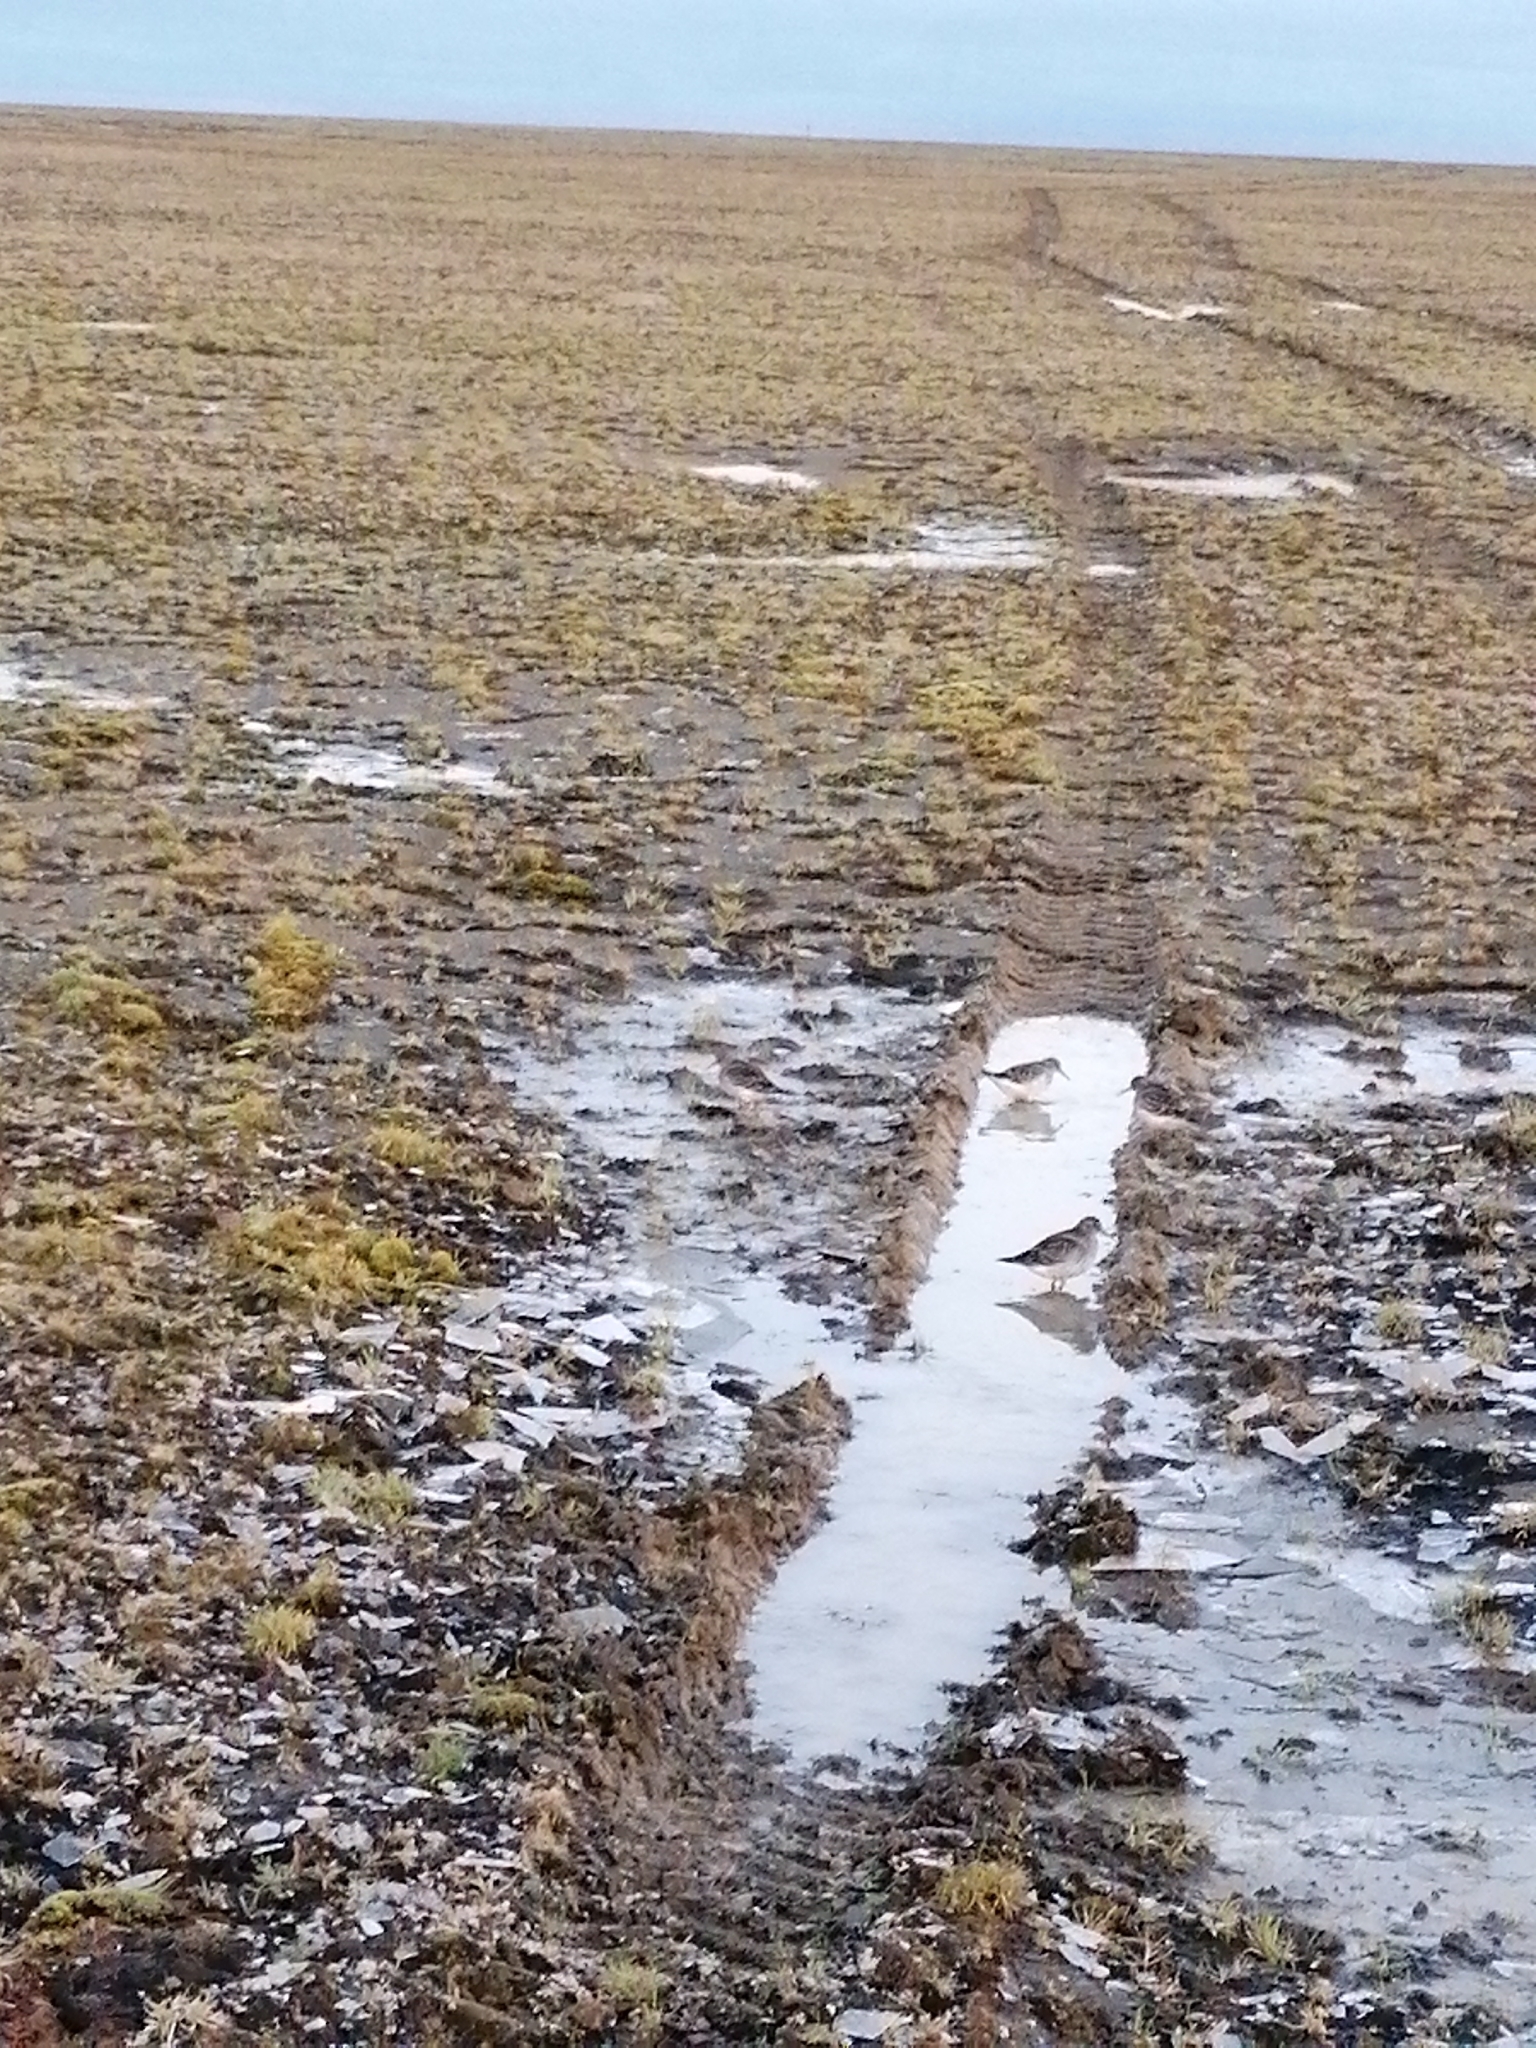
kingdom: Animalia
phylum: Chordata
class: Aves
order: Charadriiformes
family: Scolopacidae
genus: Actitis
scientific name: Actitis hypoleucos
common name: Common sandpiper
